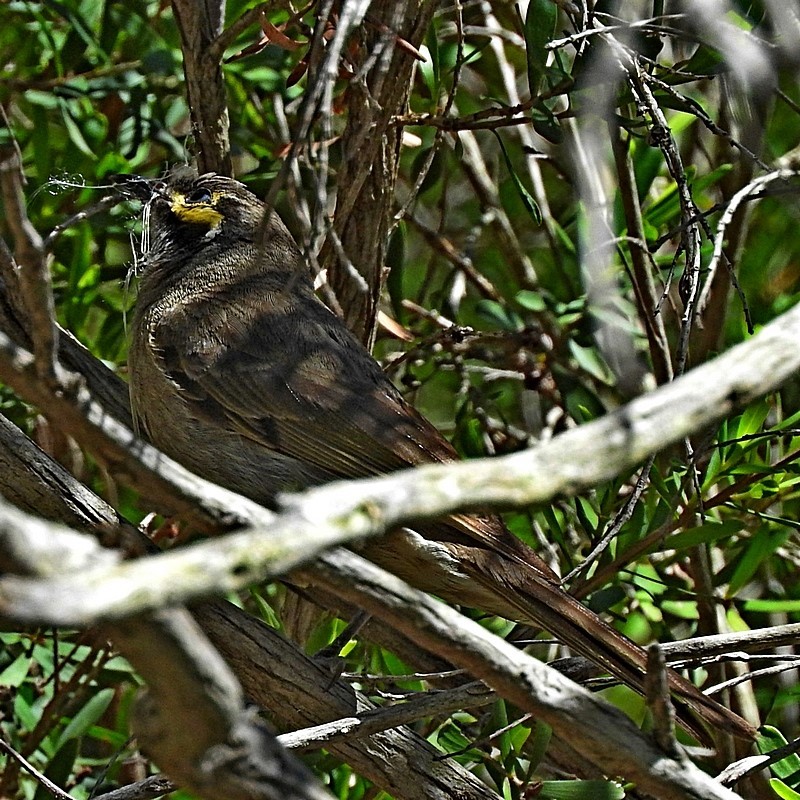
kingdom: Animalia
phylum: Chordata
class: Aves
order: Passeriformes
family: Meliphagidae
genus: Caligavis
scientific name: Caligavis chrysops
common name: Yellow-faced honeyeater
